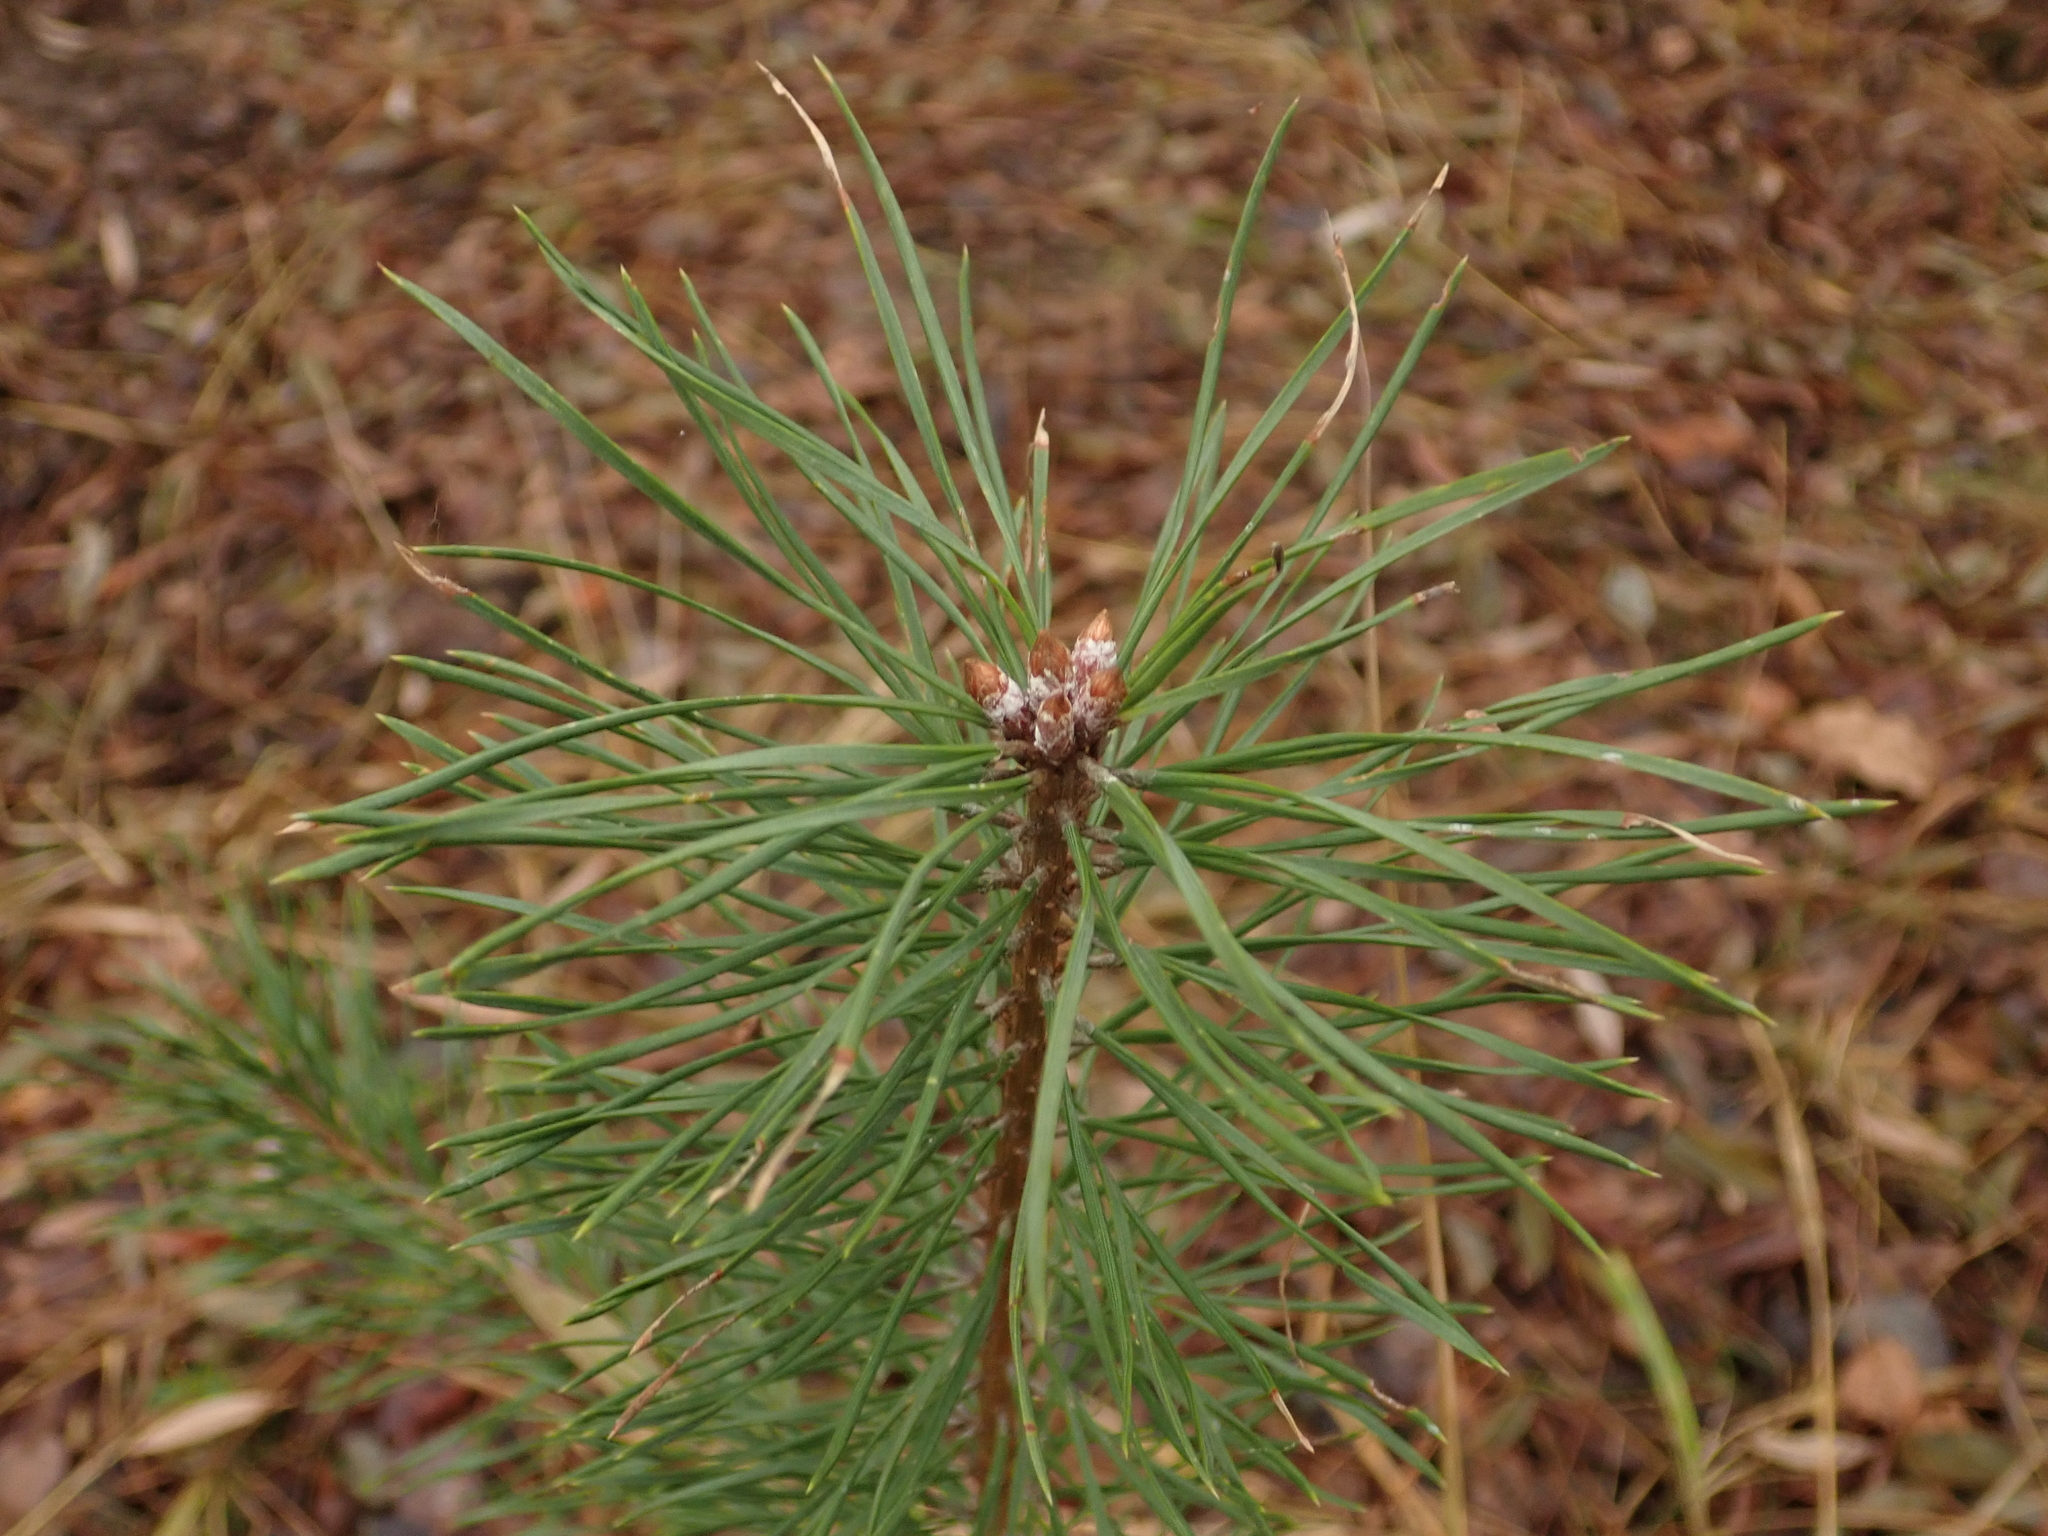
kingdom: Plantae
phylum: Tracheophyta
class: Pinopsida
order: Pinales
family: Pinaceae
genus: Pinus
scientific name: Pinus sylvestris
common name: Scots pine
